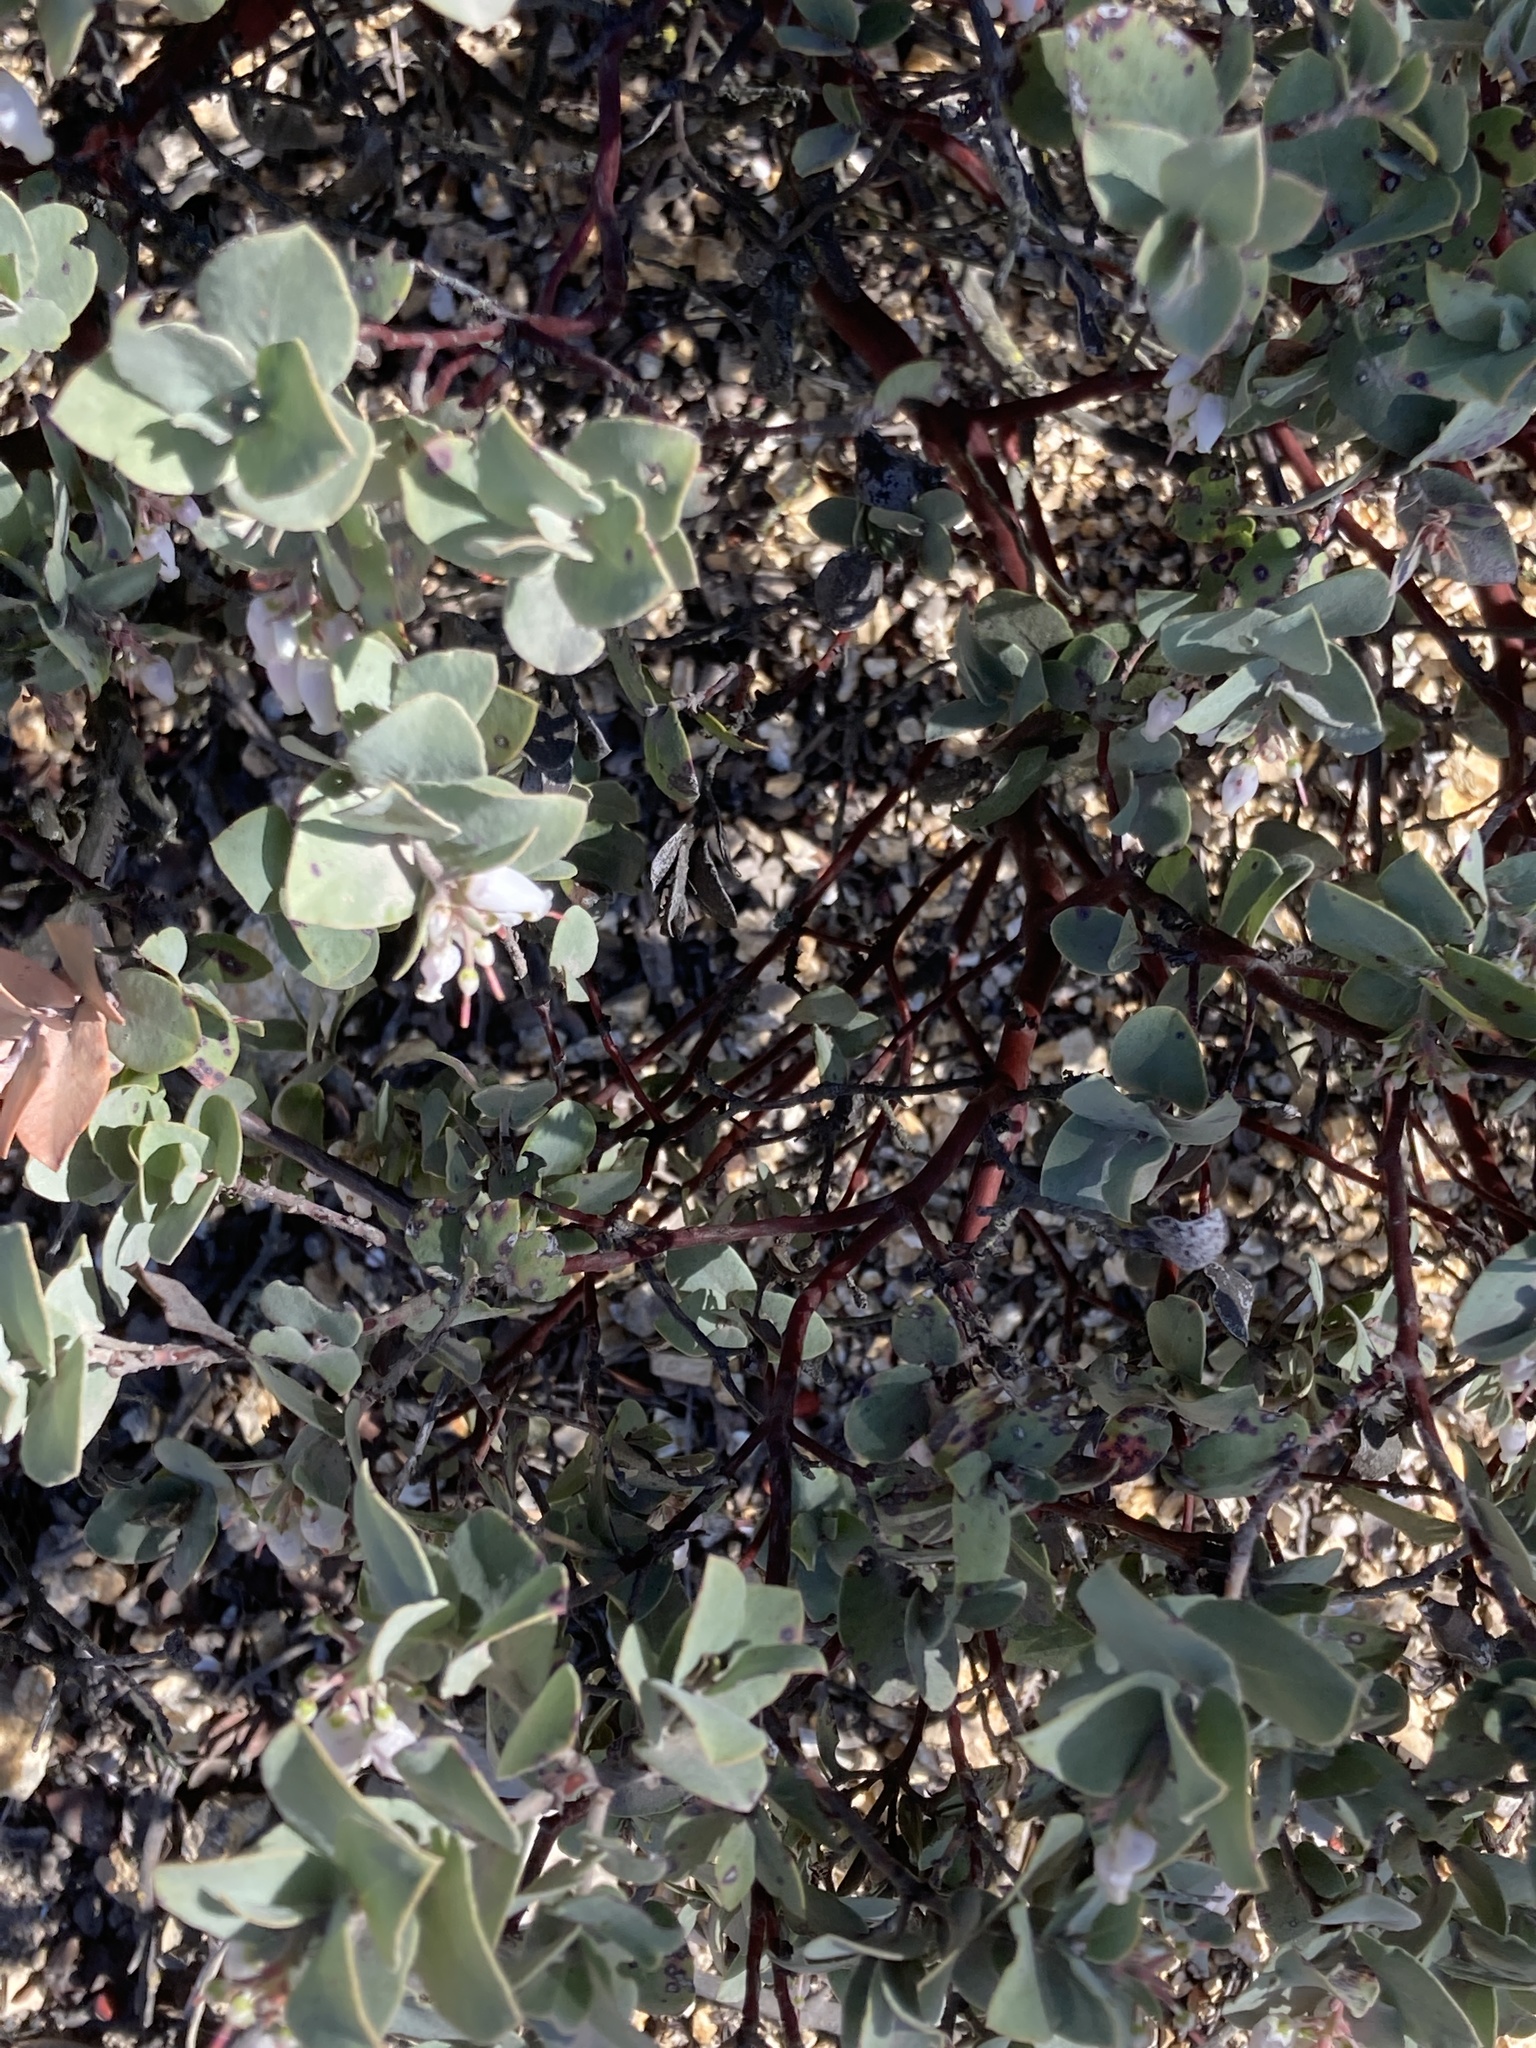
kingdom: Plantae
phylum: Tracheophyta
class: Magnoliopsida
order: Ericales
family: Ericaceae
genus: Arctostaphylos
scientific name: Arctostaphylos luciana
